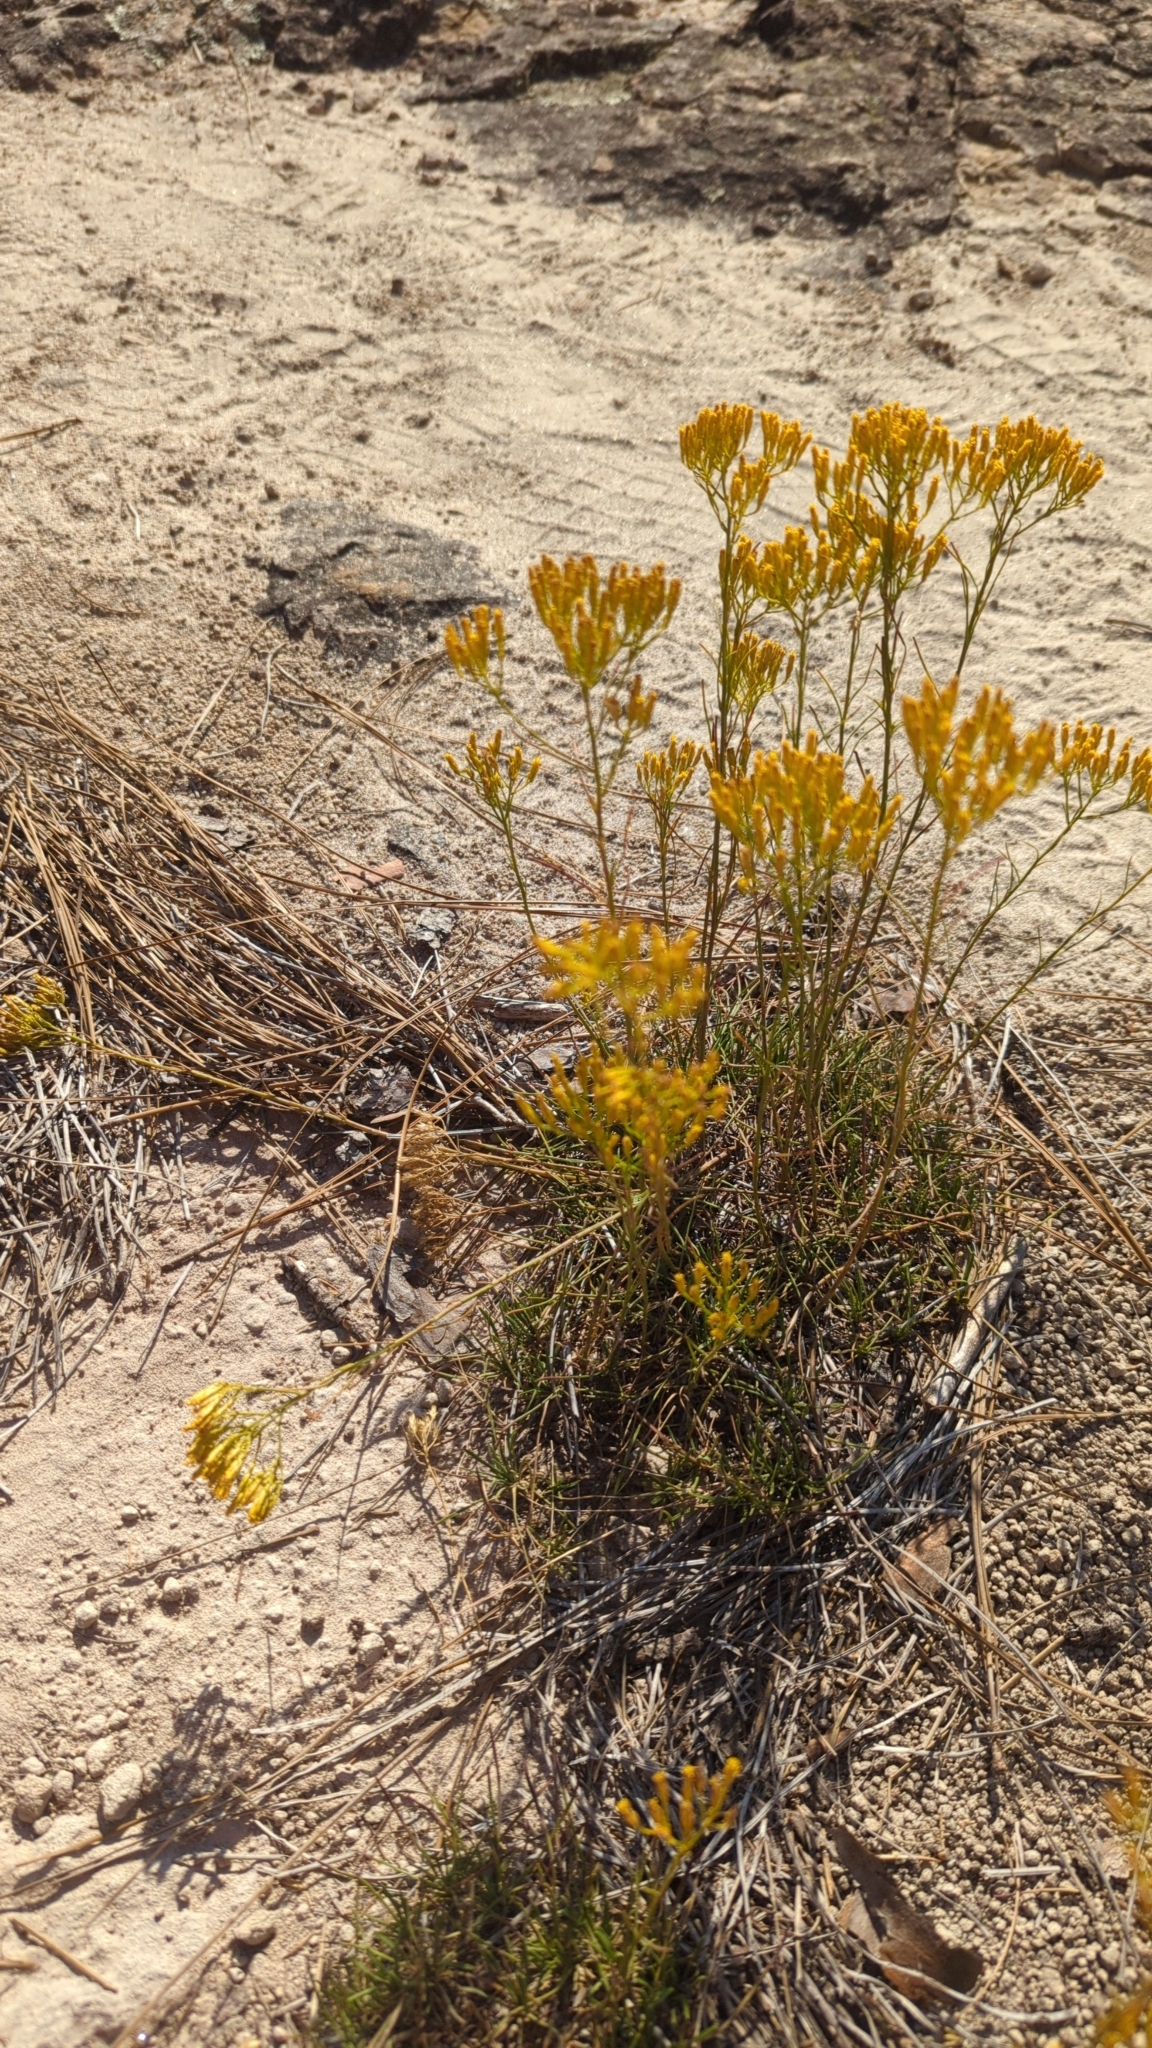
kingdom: Plantae
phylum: Tracheophyta
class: Magnoliopsida
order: Asterales
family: Asteraceae
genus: Bigelowia
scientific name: Bigelowia nuttallii
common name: Nuttall's rayless-goldenrod
